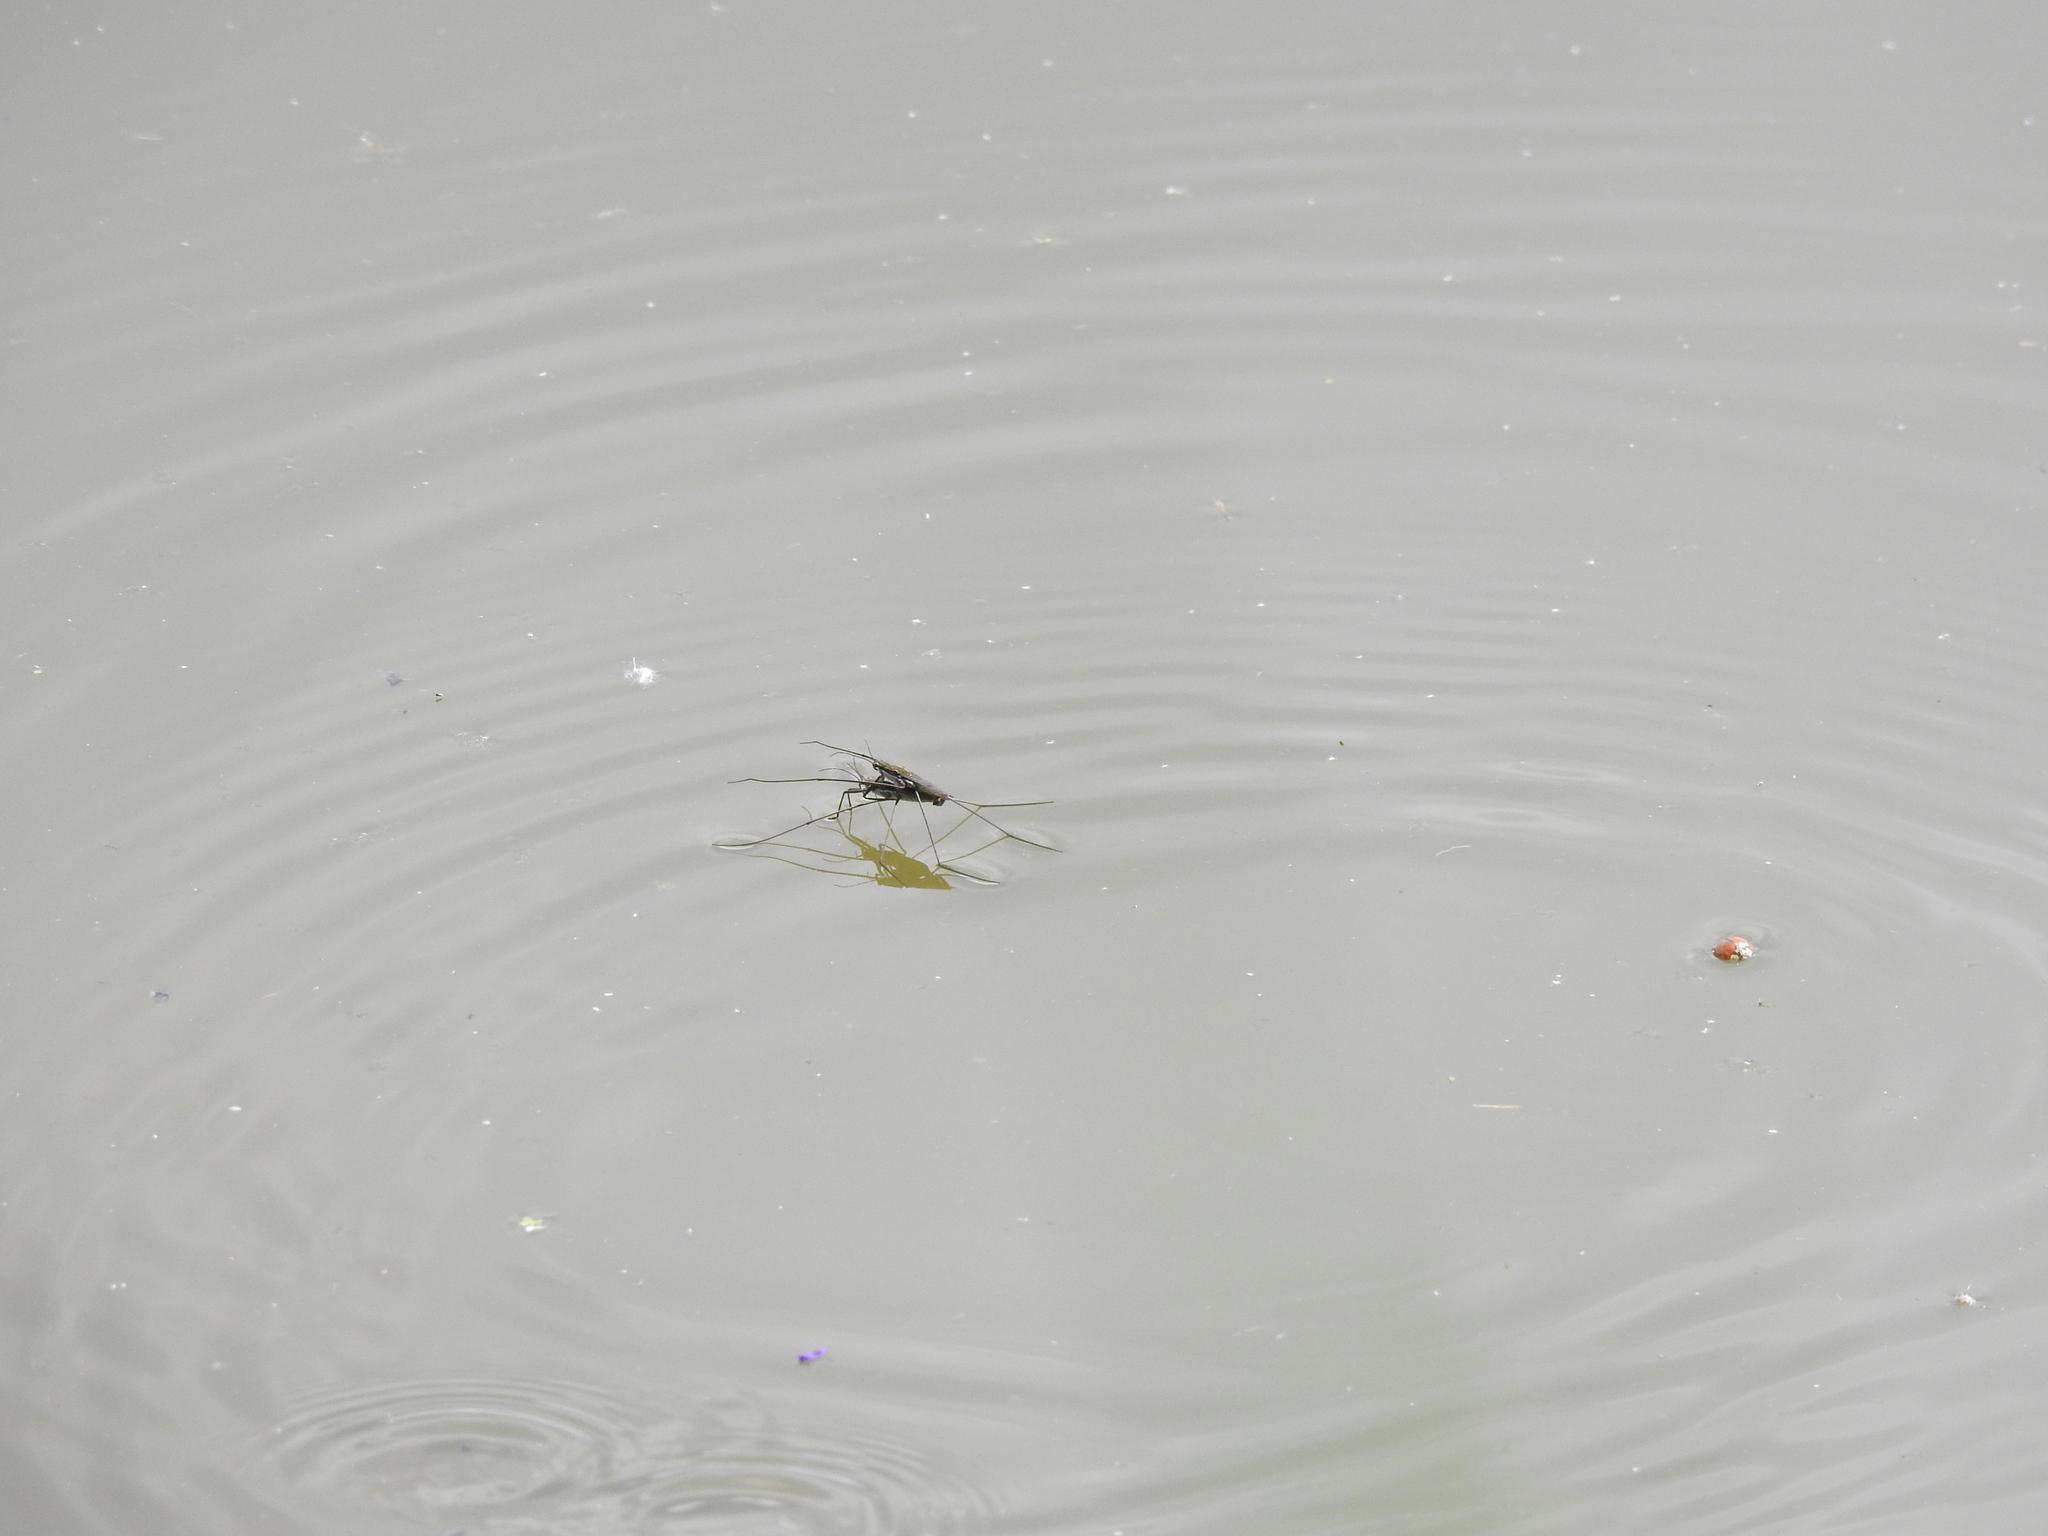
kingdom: Animalia
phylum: Arthropoda
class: Insecta
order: Hemiptera
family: Gerridae
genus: Aquarius
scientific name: Aquarius paludum
